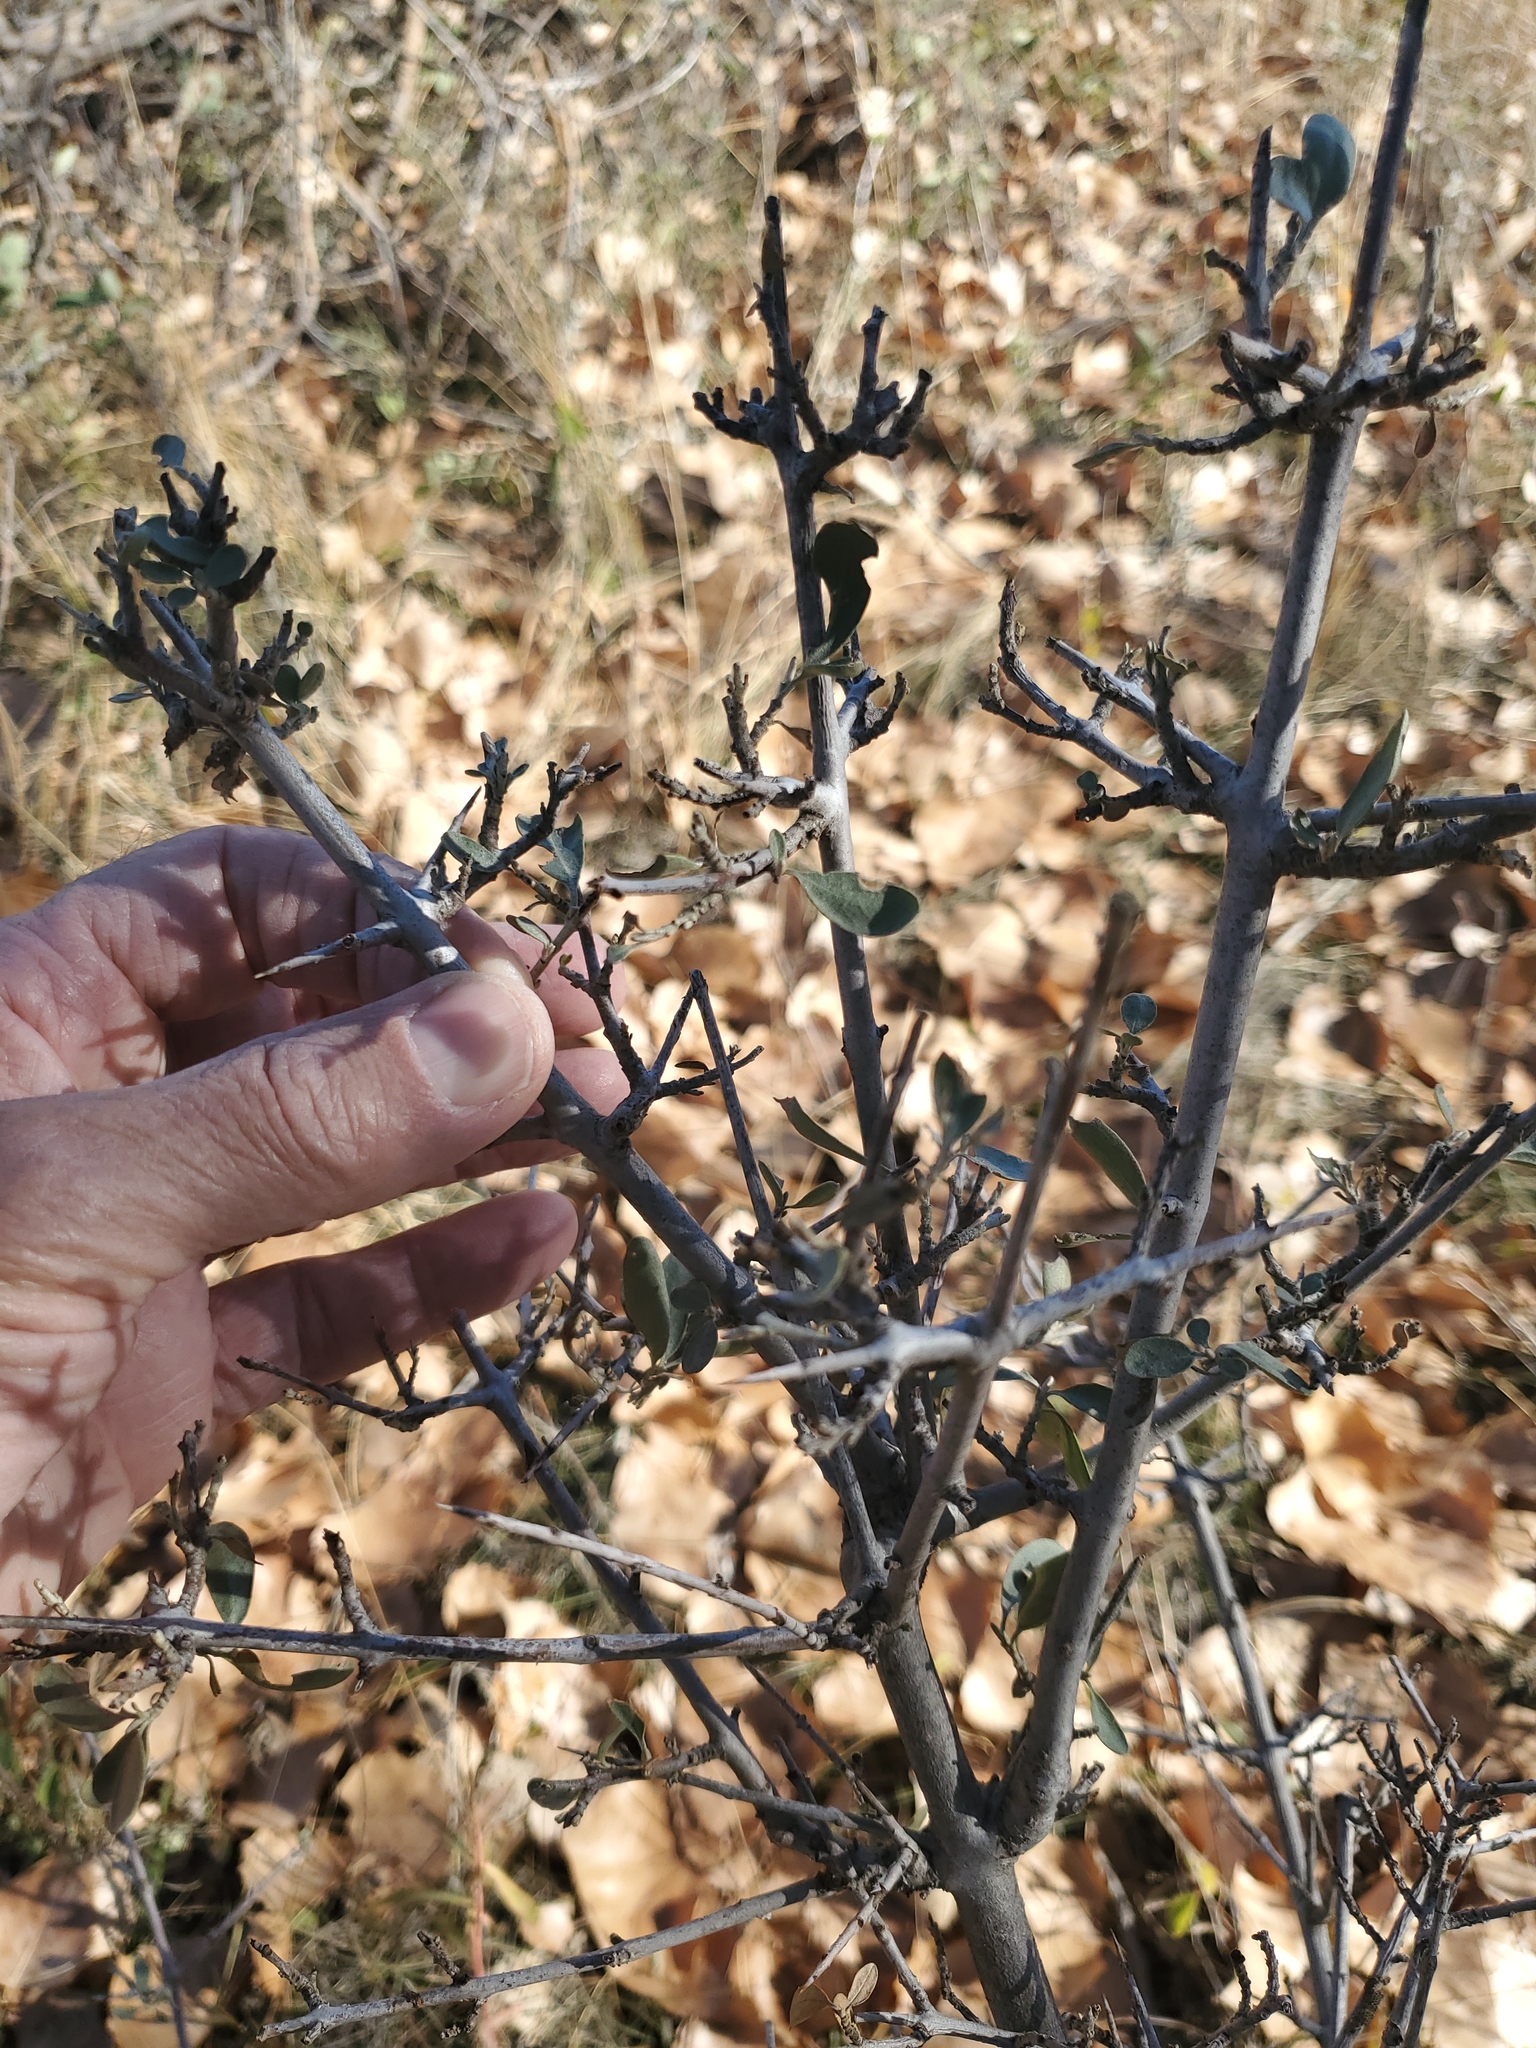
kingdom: Plantae
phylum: Tracheophyta
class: Magnoliopsida
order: Rosales
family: Elaeagnaceae
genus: Shepherdia
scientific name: Shepherdia argentea
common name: Silver buffaloberry
